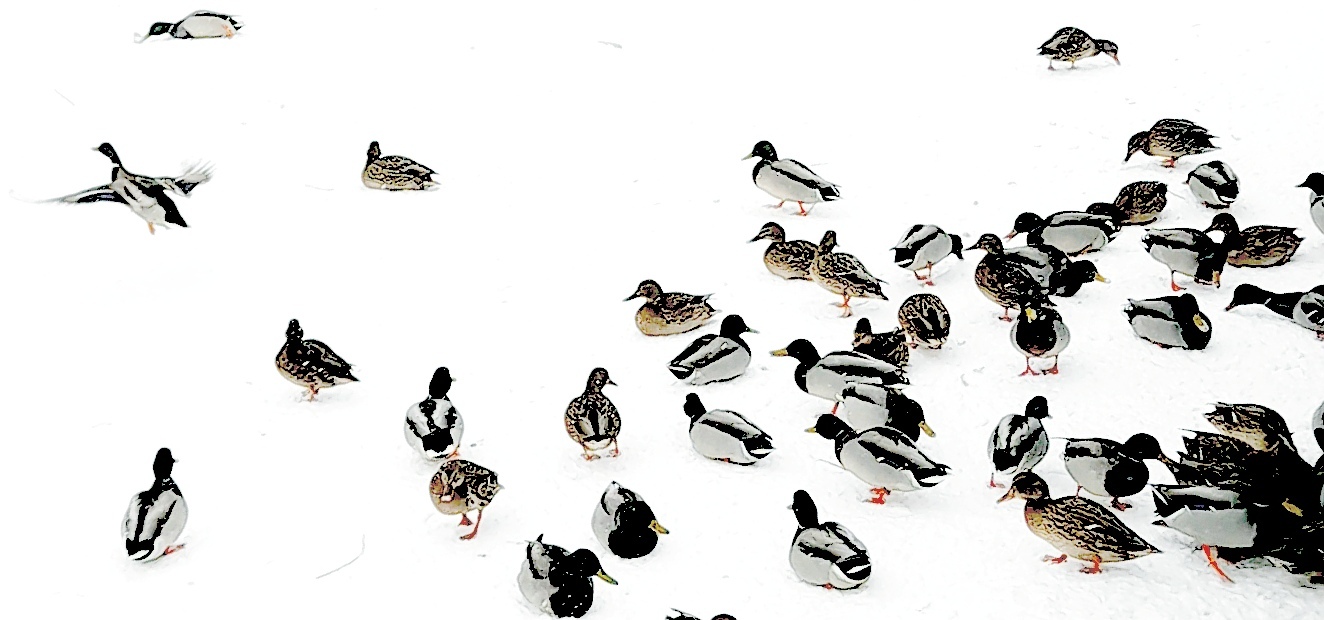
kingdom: Animalia
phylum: Chordata
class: Aves
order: Anseriformes
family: Anatidae
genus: Anas
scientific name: Anas platyrhynchos
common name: Mallard
